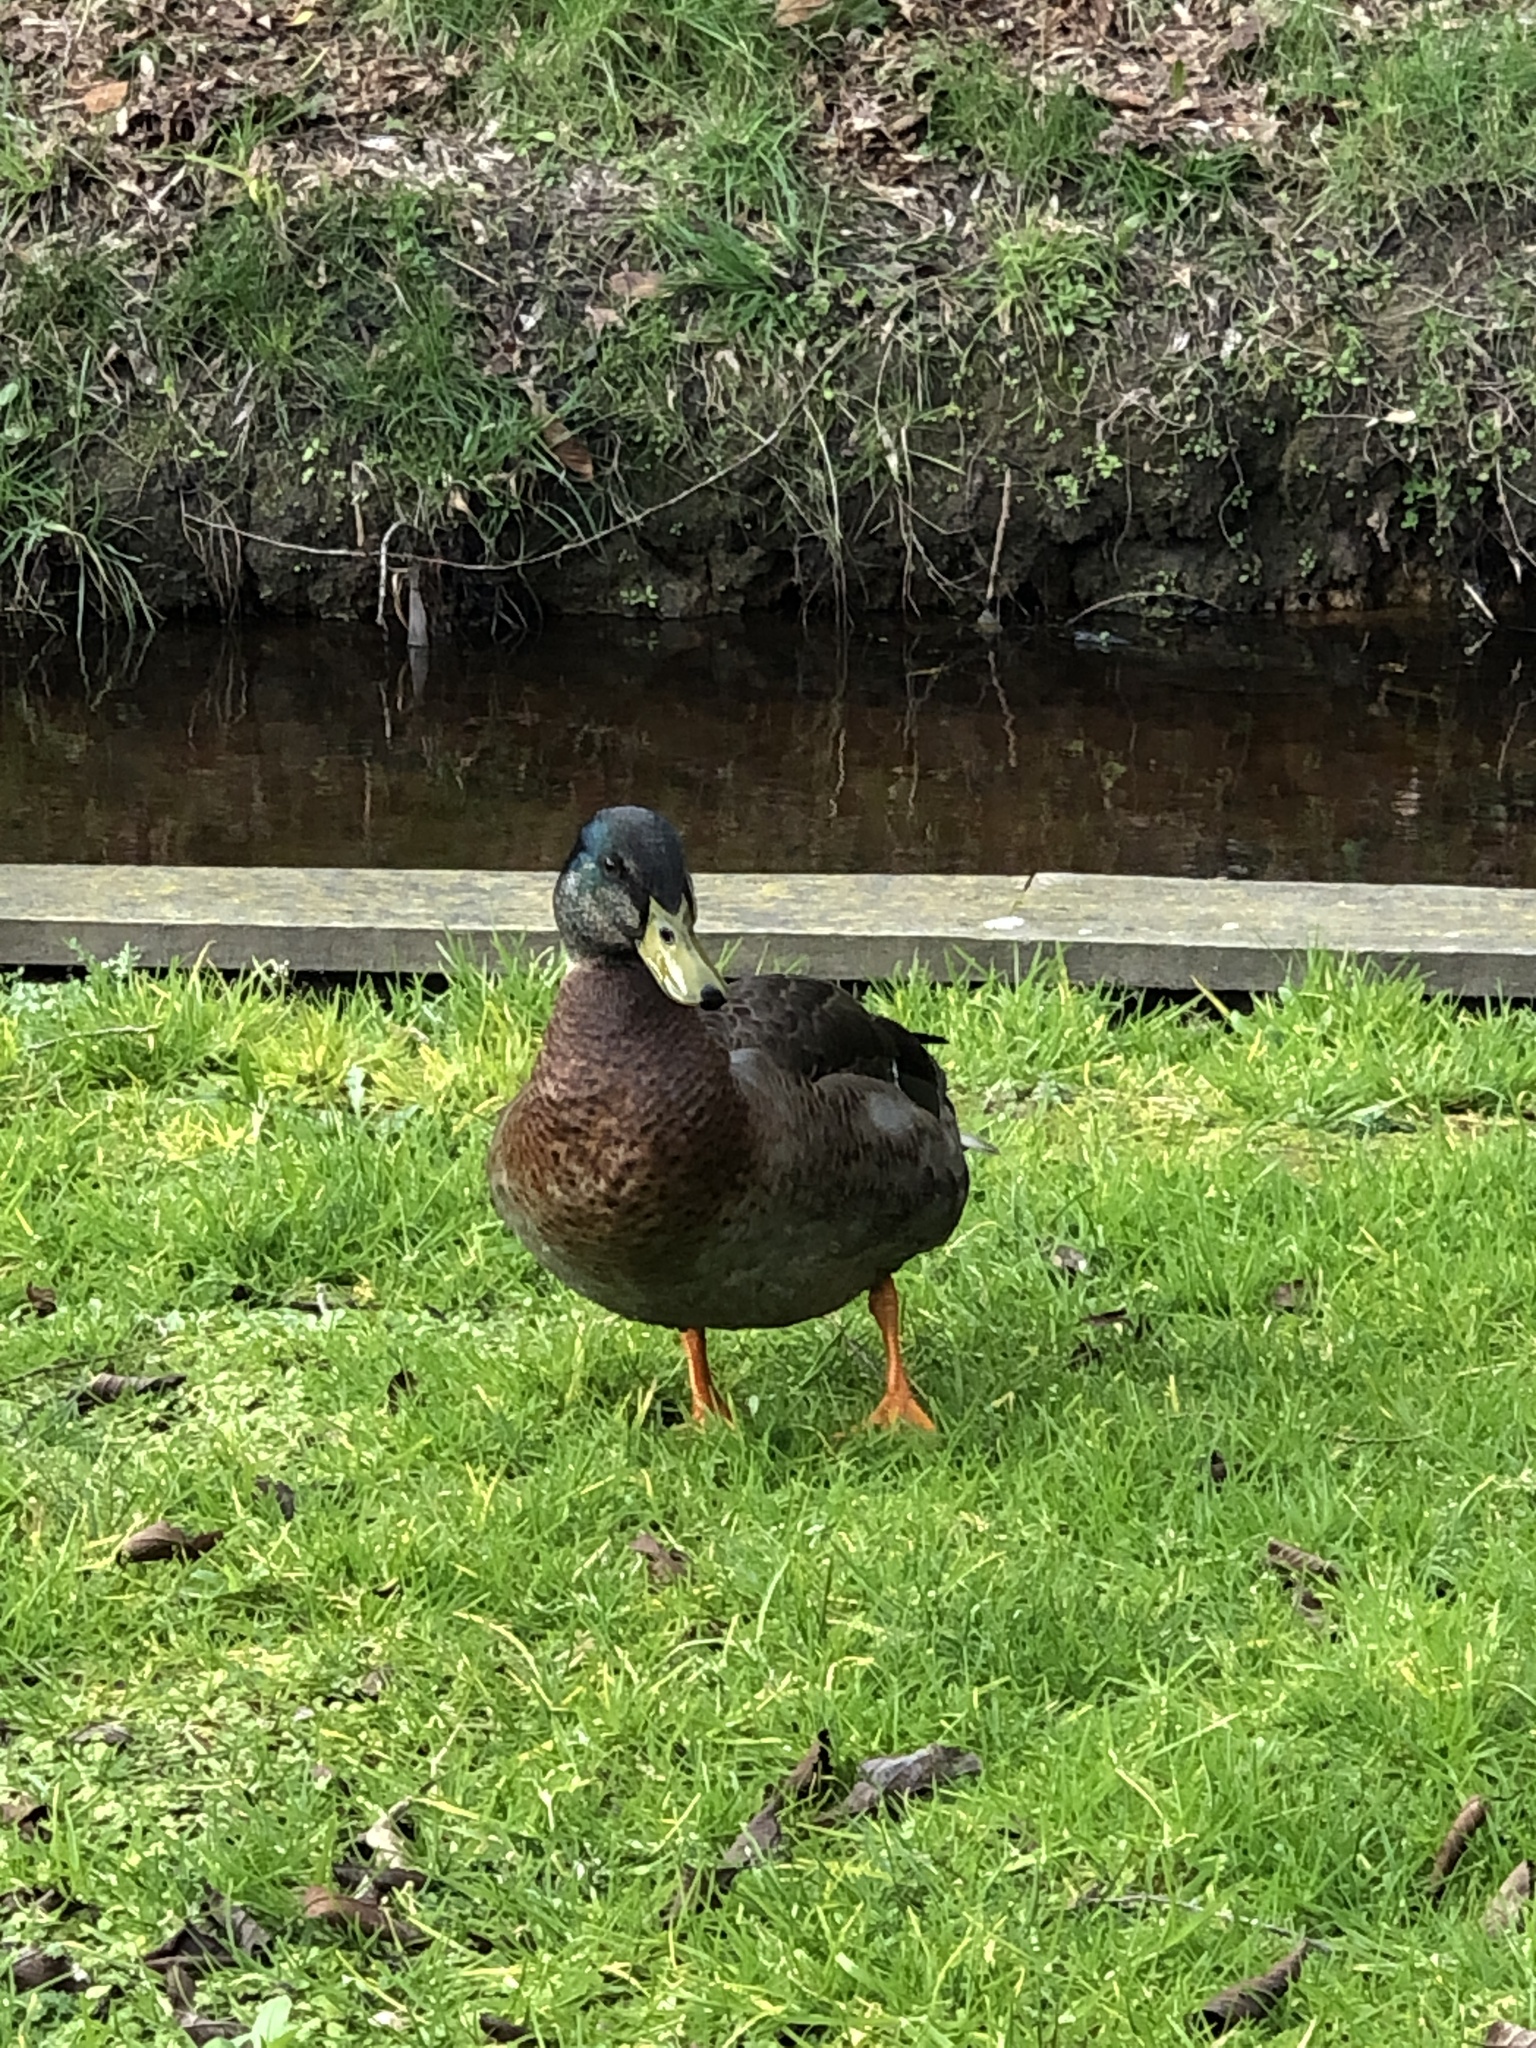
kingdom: Animalia
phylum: Chordata
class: Aves
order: Anseriformes
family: Anatidae
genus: Anas
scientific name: Anas
